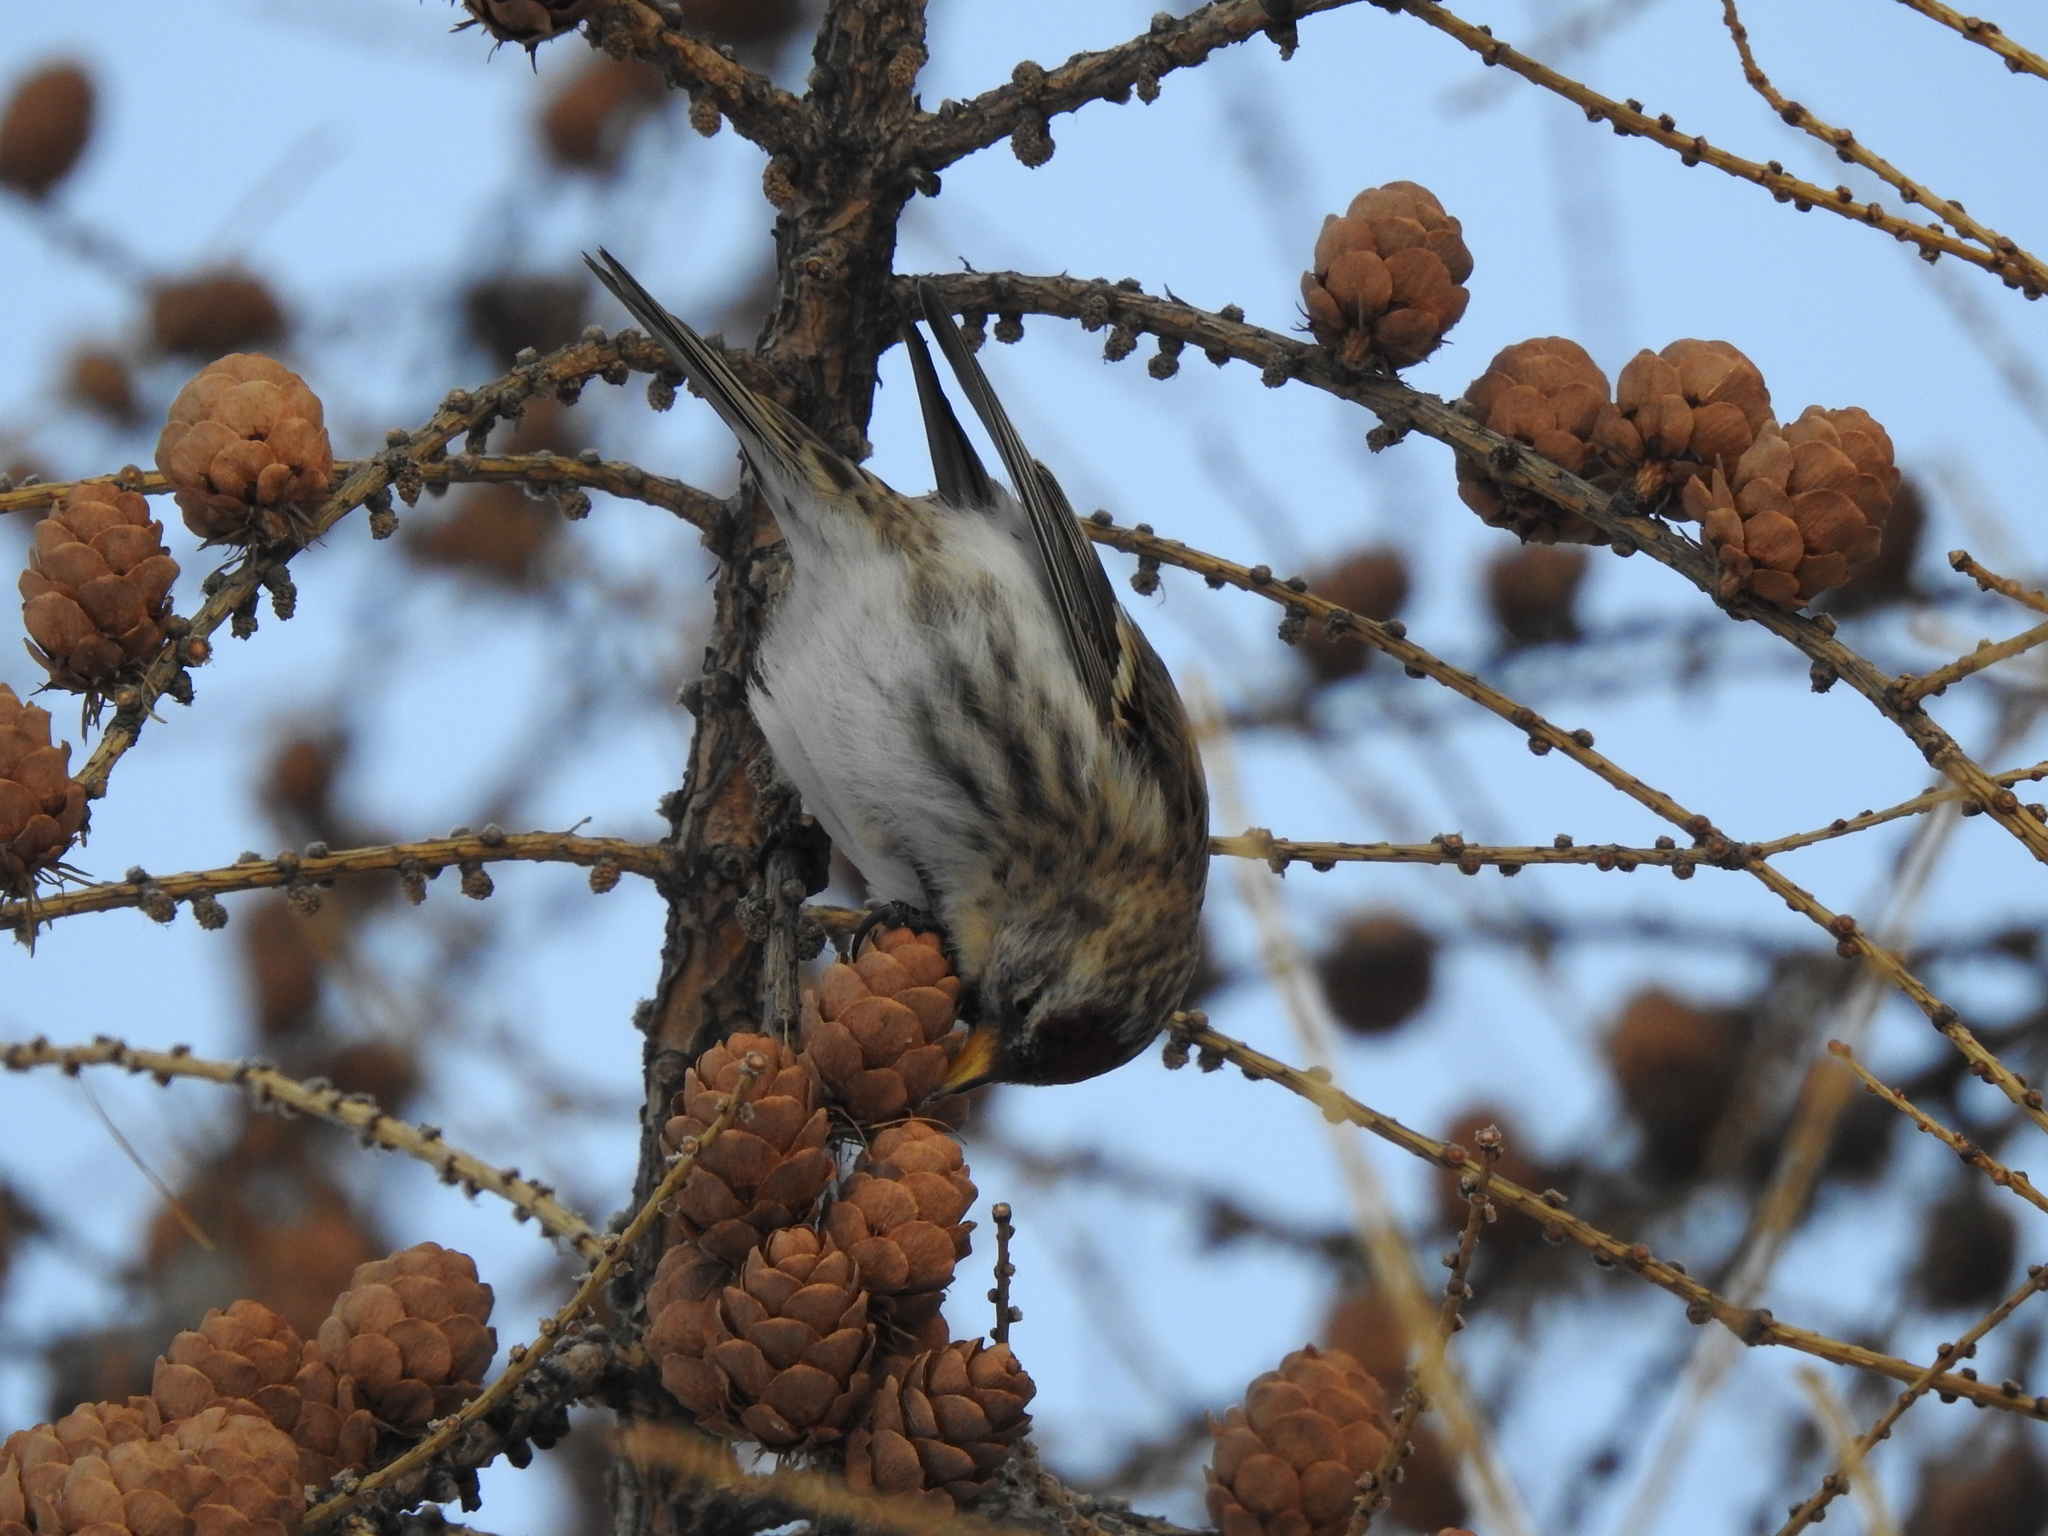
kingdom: Animalia
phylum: Chordata
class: Aves
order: Passeriformes
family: Fringillidae
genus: Acanthis
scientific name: Acanthis flammea
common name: Common redpoll
